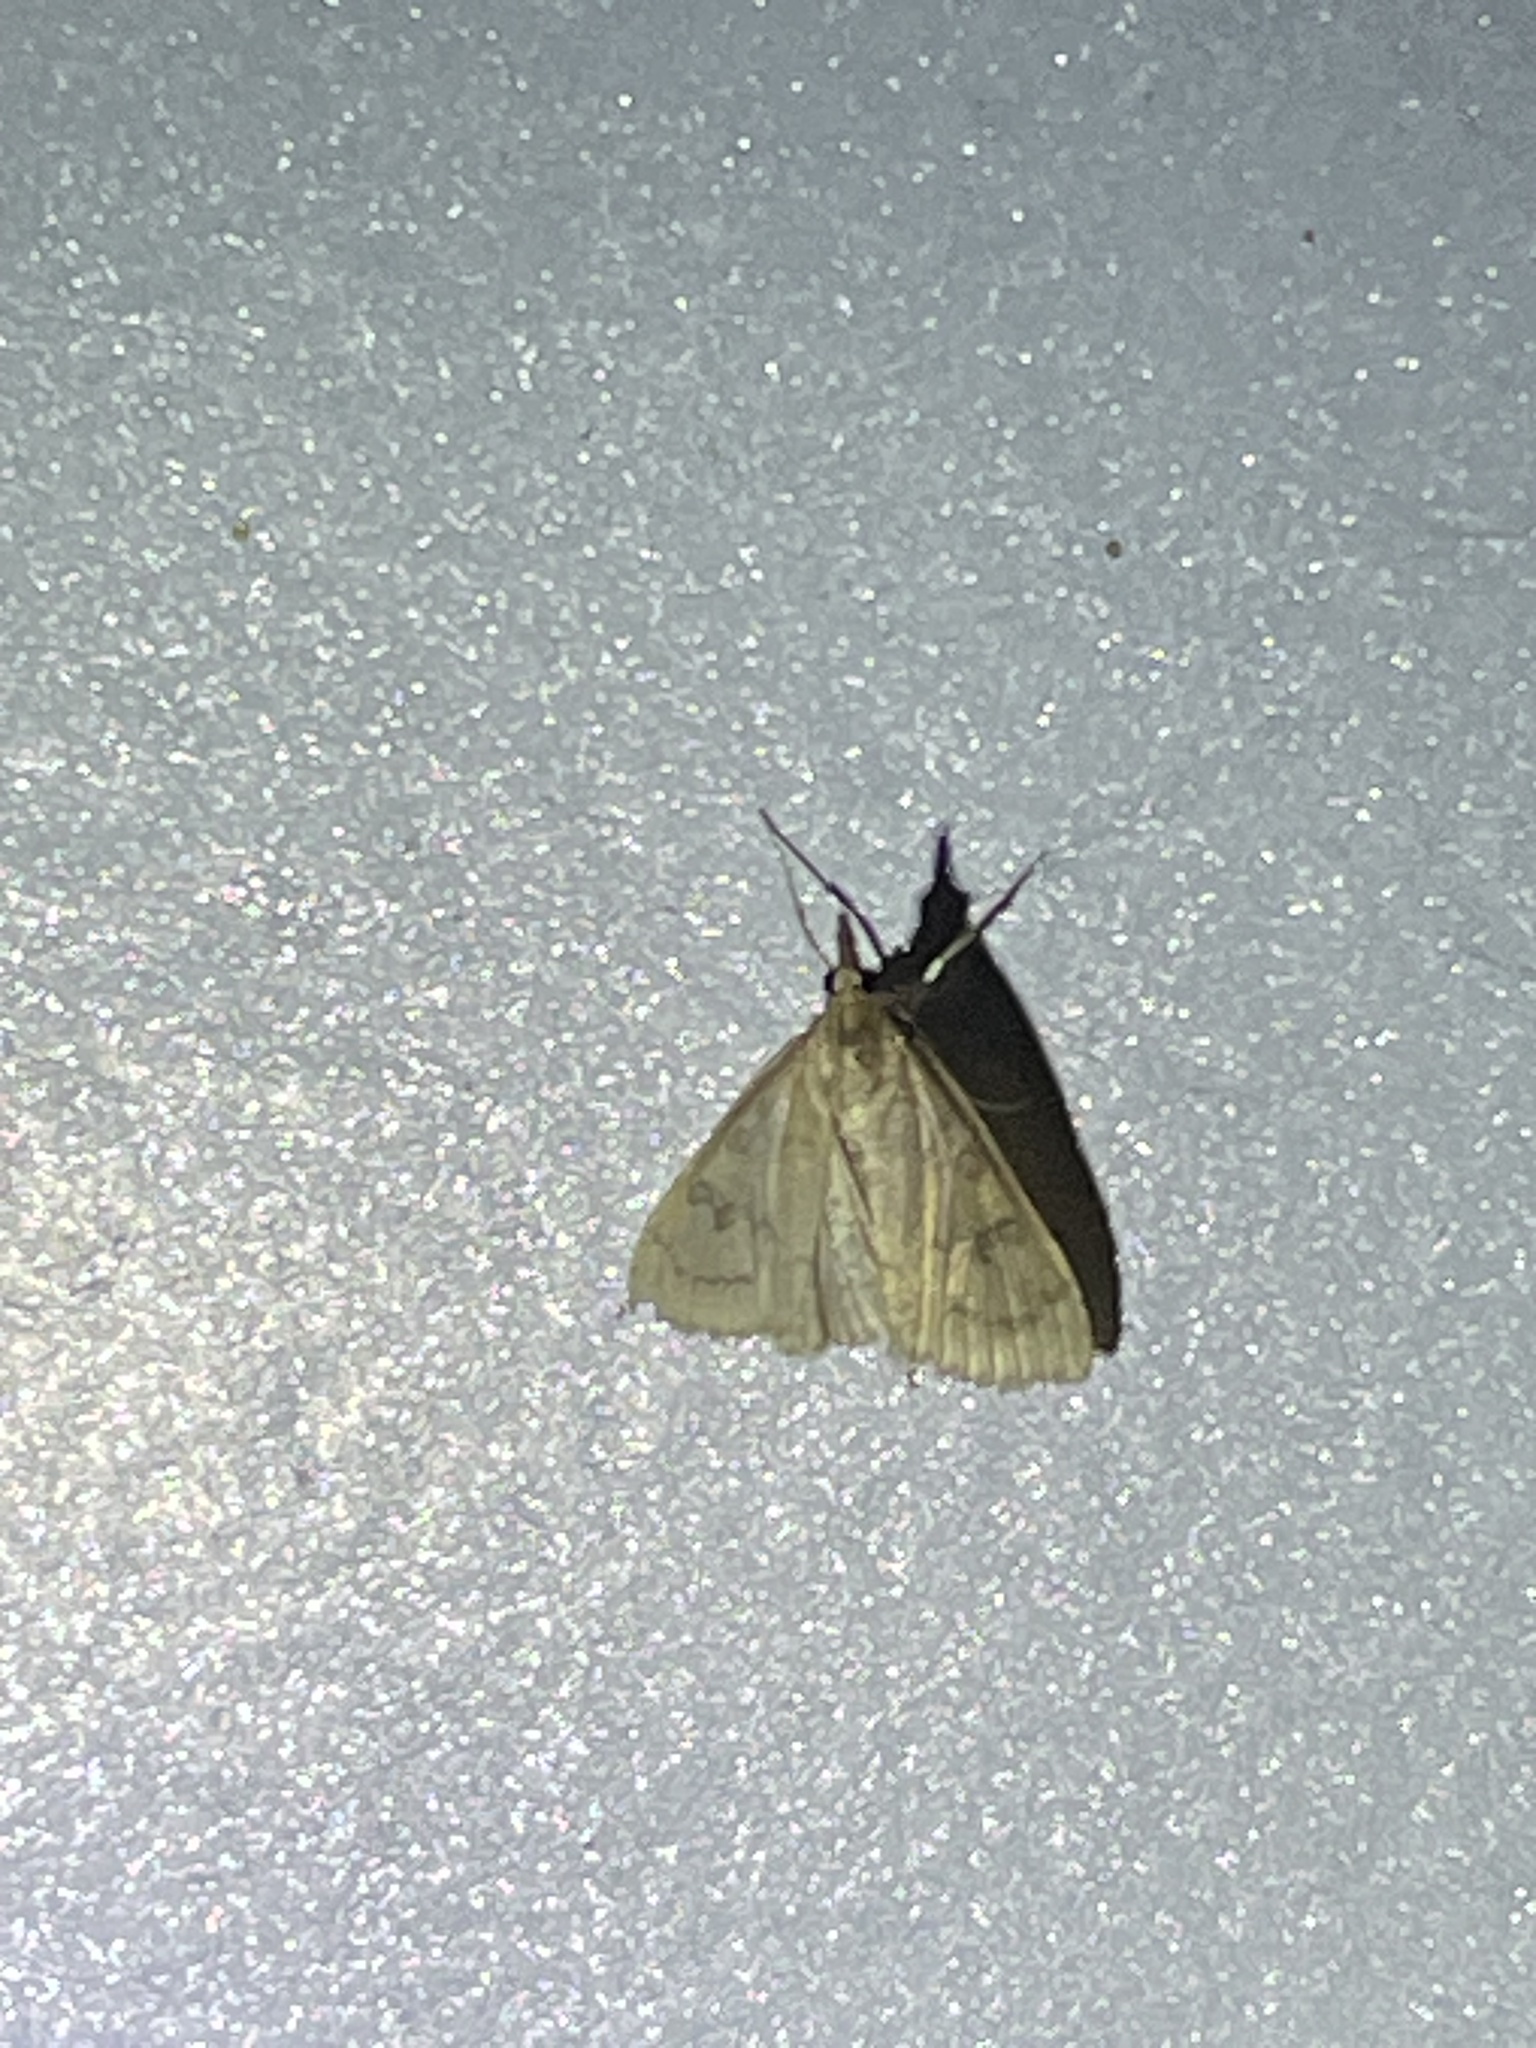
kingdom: Animalia
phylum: Arthropoda
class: Insecta
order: Lepidoptera
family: Crambidae
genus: Udea
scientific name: Udea rubigalis
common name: Celery leaftier moth
